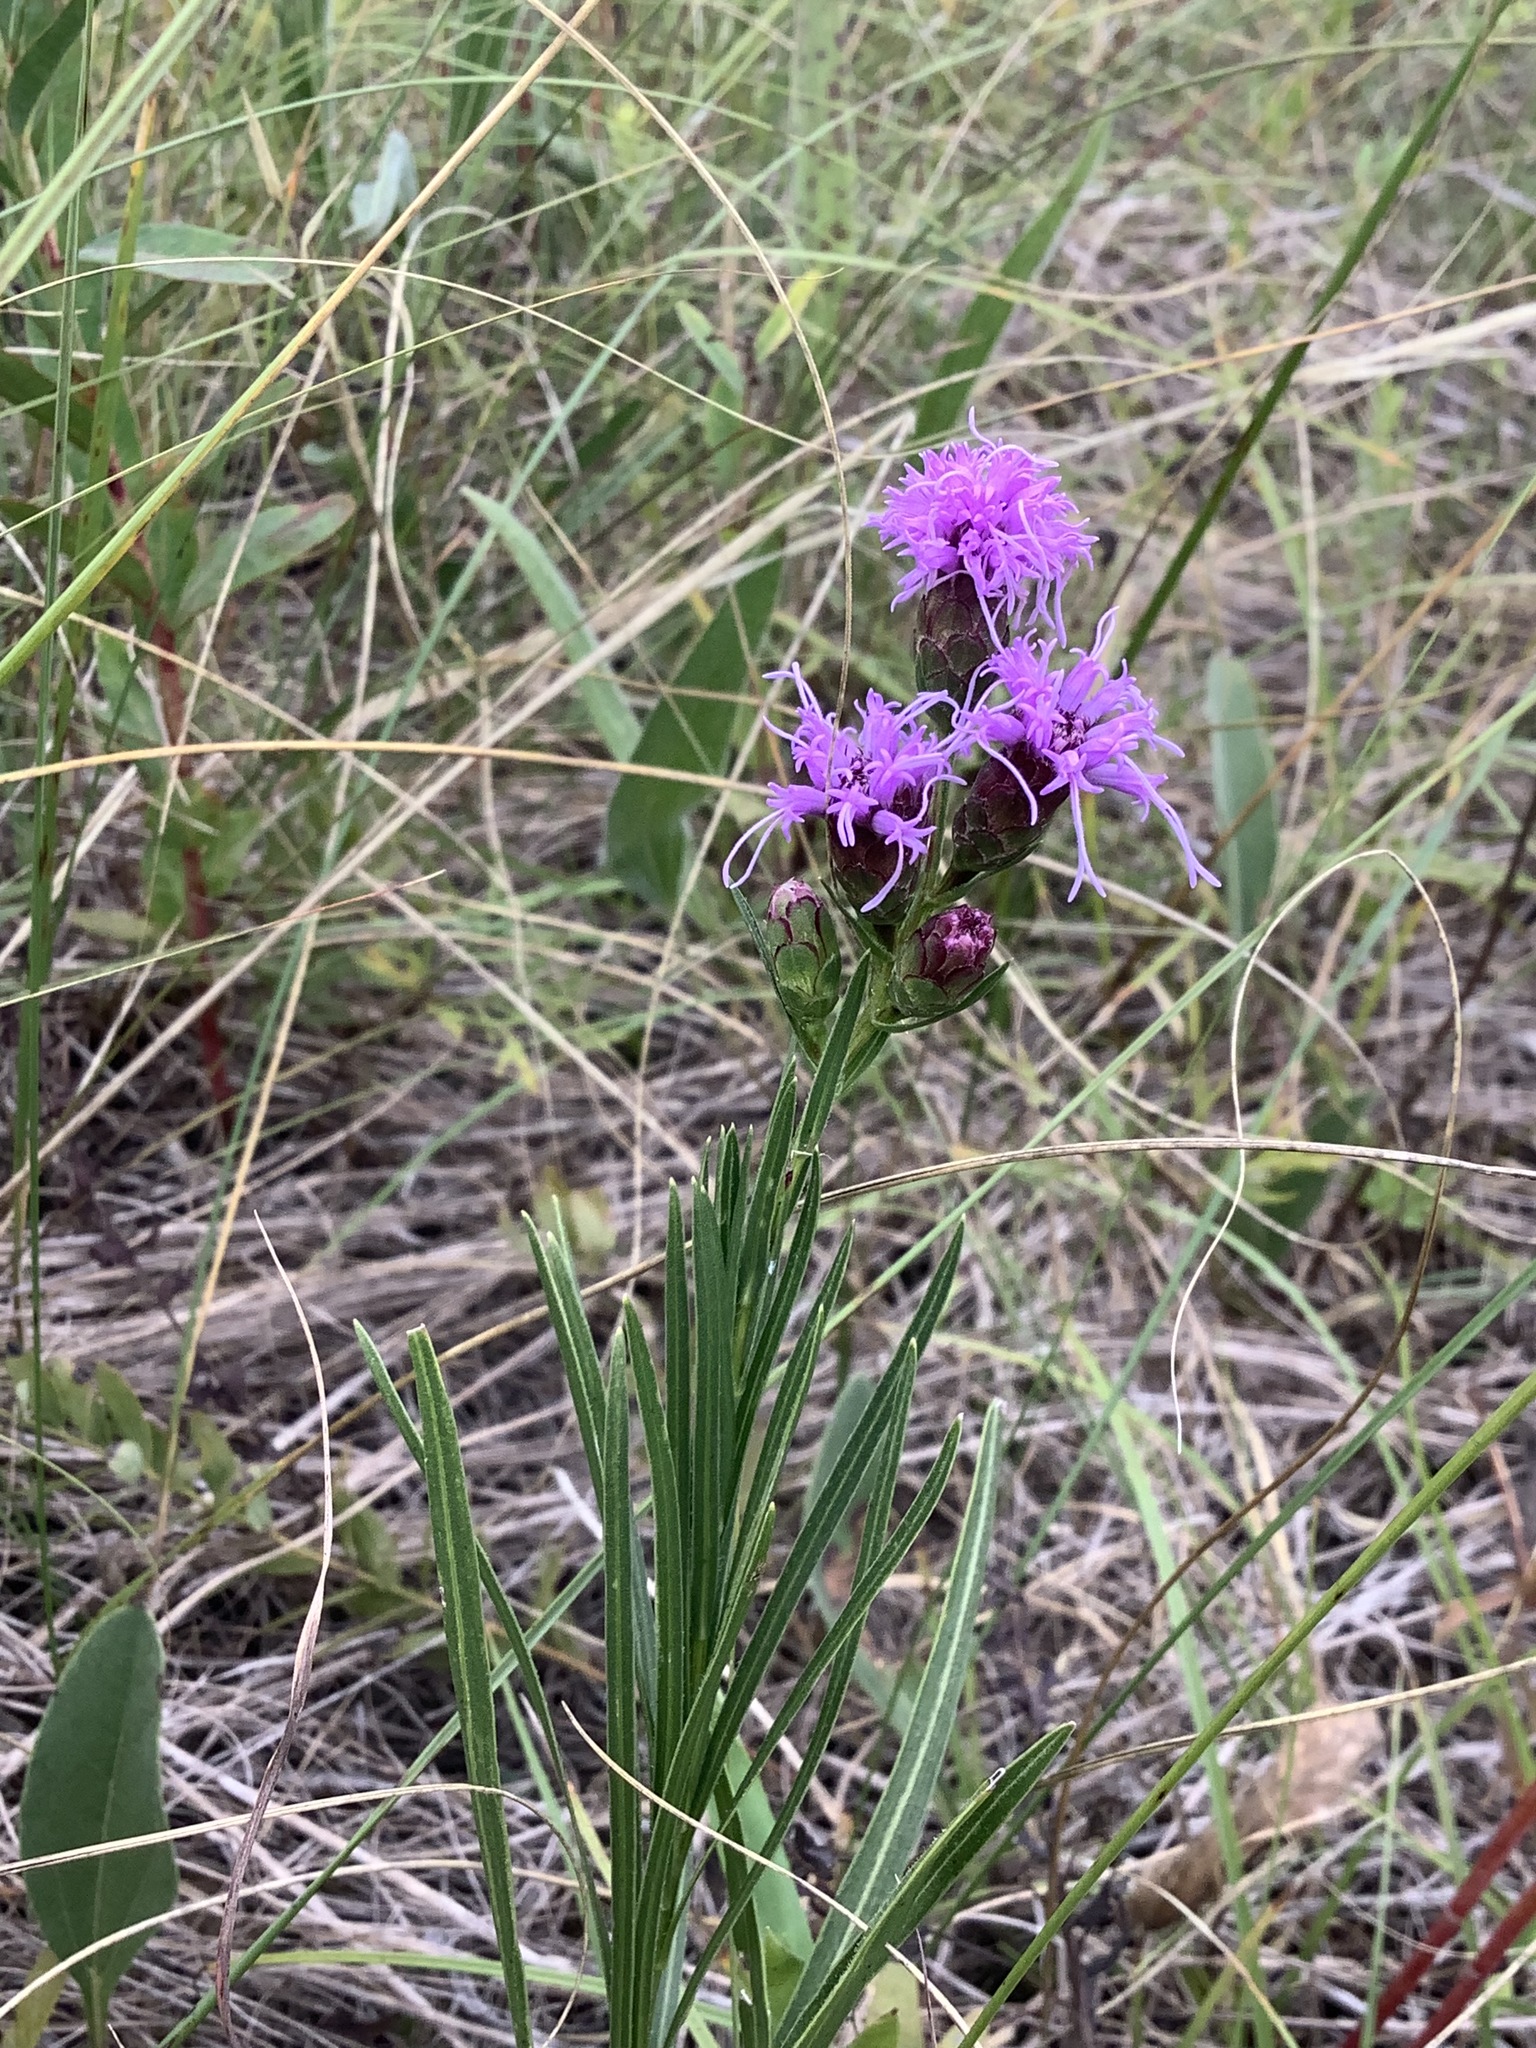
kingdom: Plantae
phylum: Tracheophyta
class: Magnoliopsida
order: Asterales
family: Asteraceae
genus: Liatris
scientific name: Liatris cylindracea
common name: Few-head blazingstar
